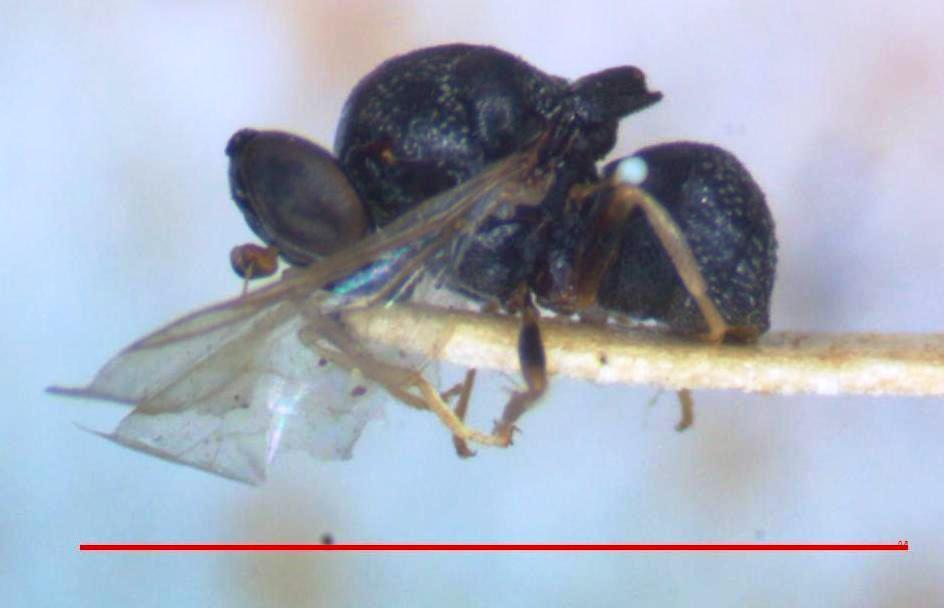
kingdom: Animalia
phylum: Arthropoda
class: Insecta
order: Diptera
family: Stratiomyidae
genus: Gowdeyana
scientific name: Gowdeyana vitrisetosa
